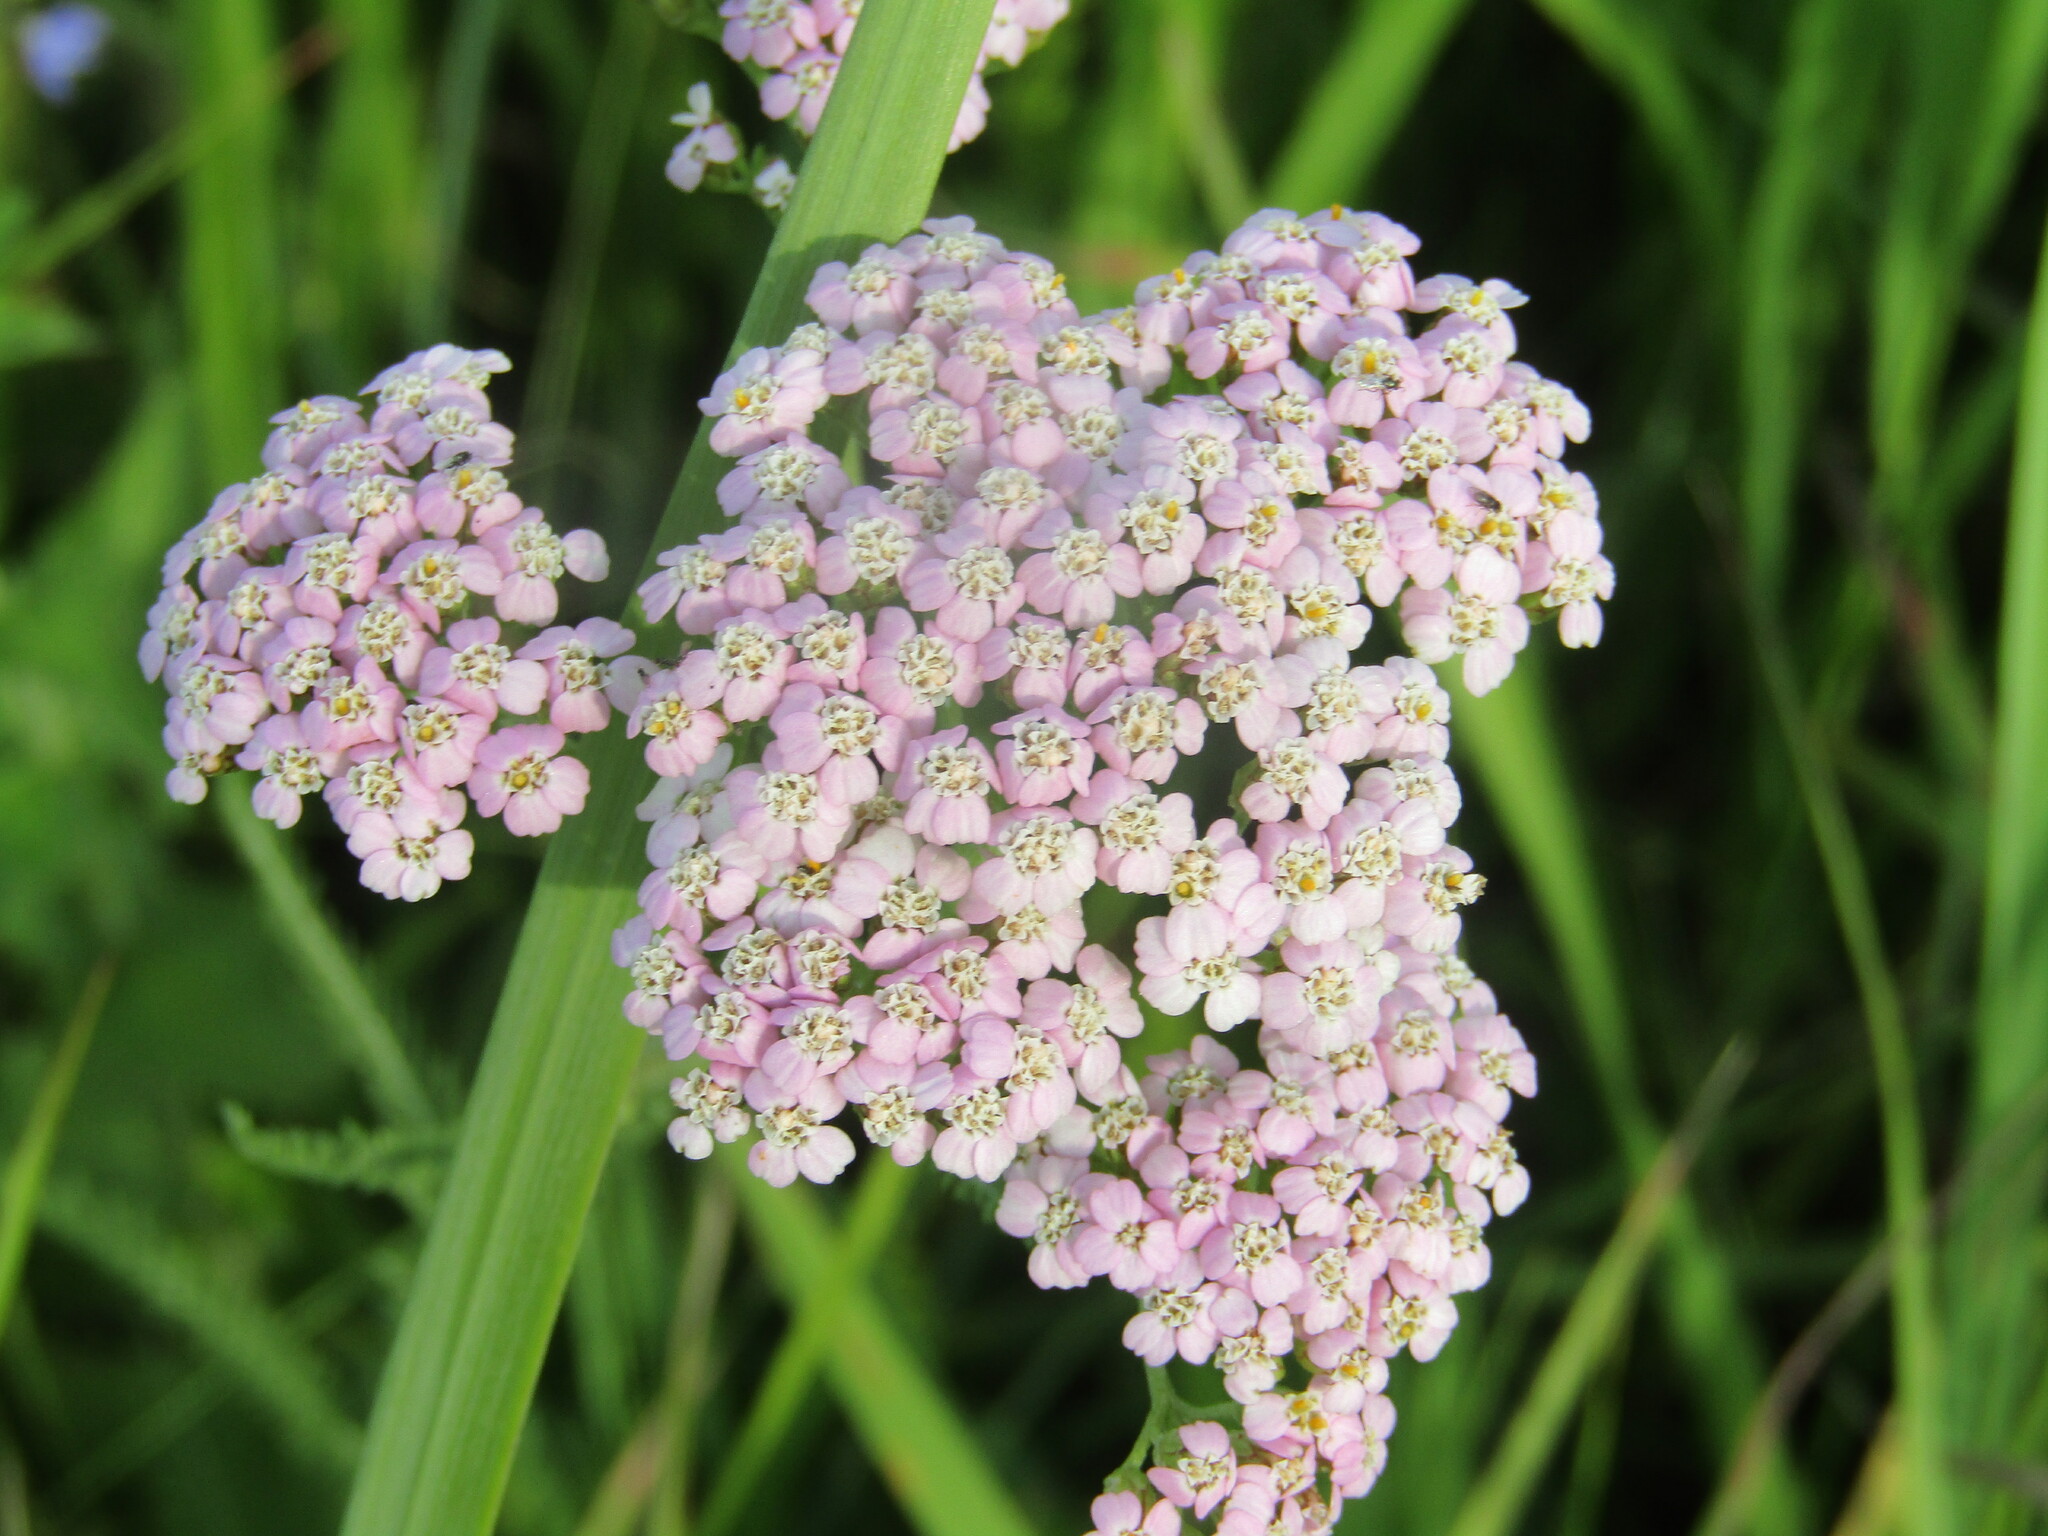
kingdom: Plantae
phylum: Tracheophyta
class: Magnoliopsida
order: Asterales
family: Asteraceae
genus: Achillea
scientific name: Achillea millefolium
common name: Yarrow
